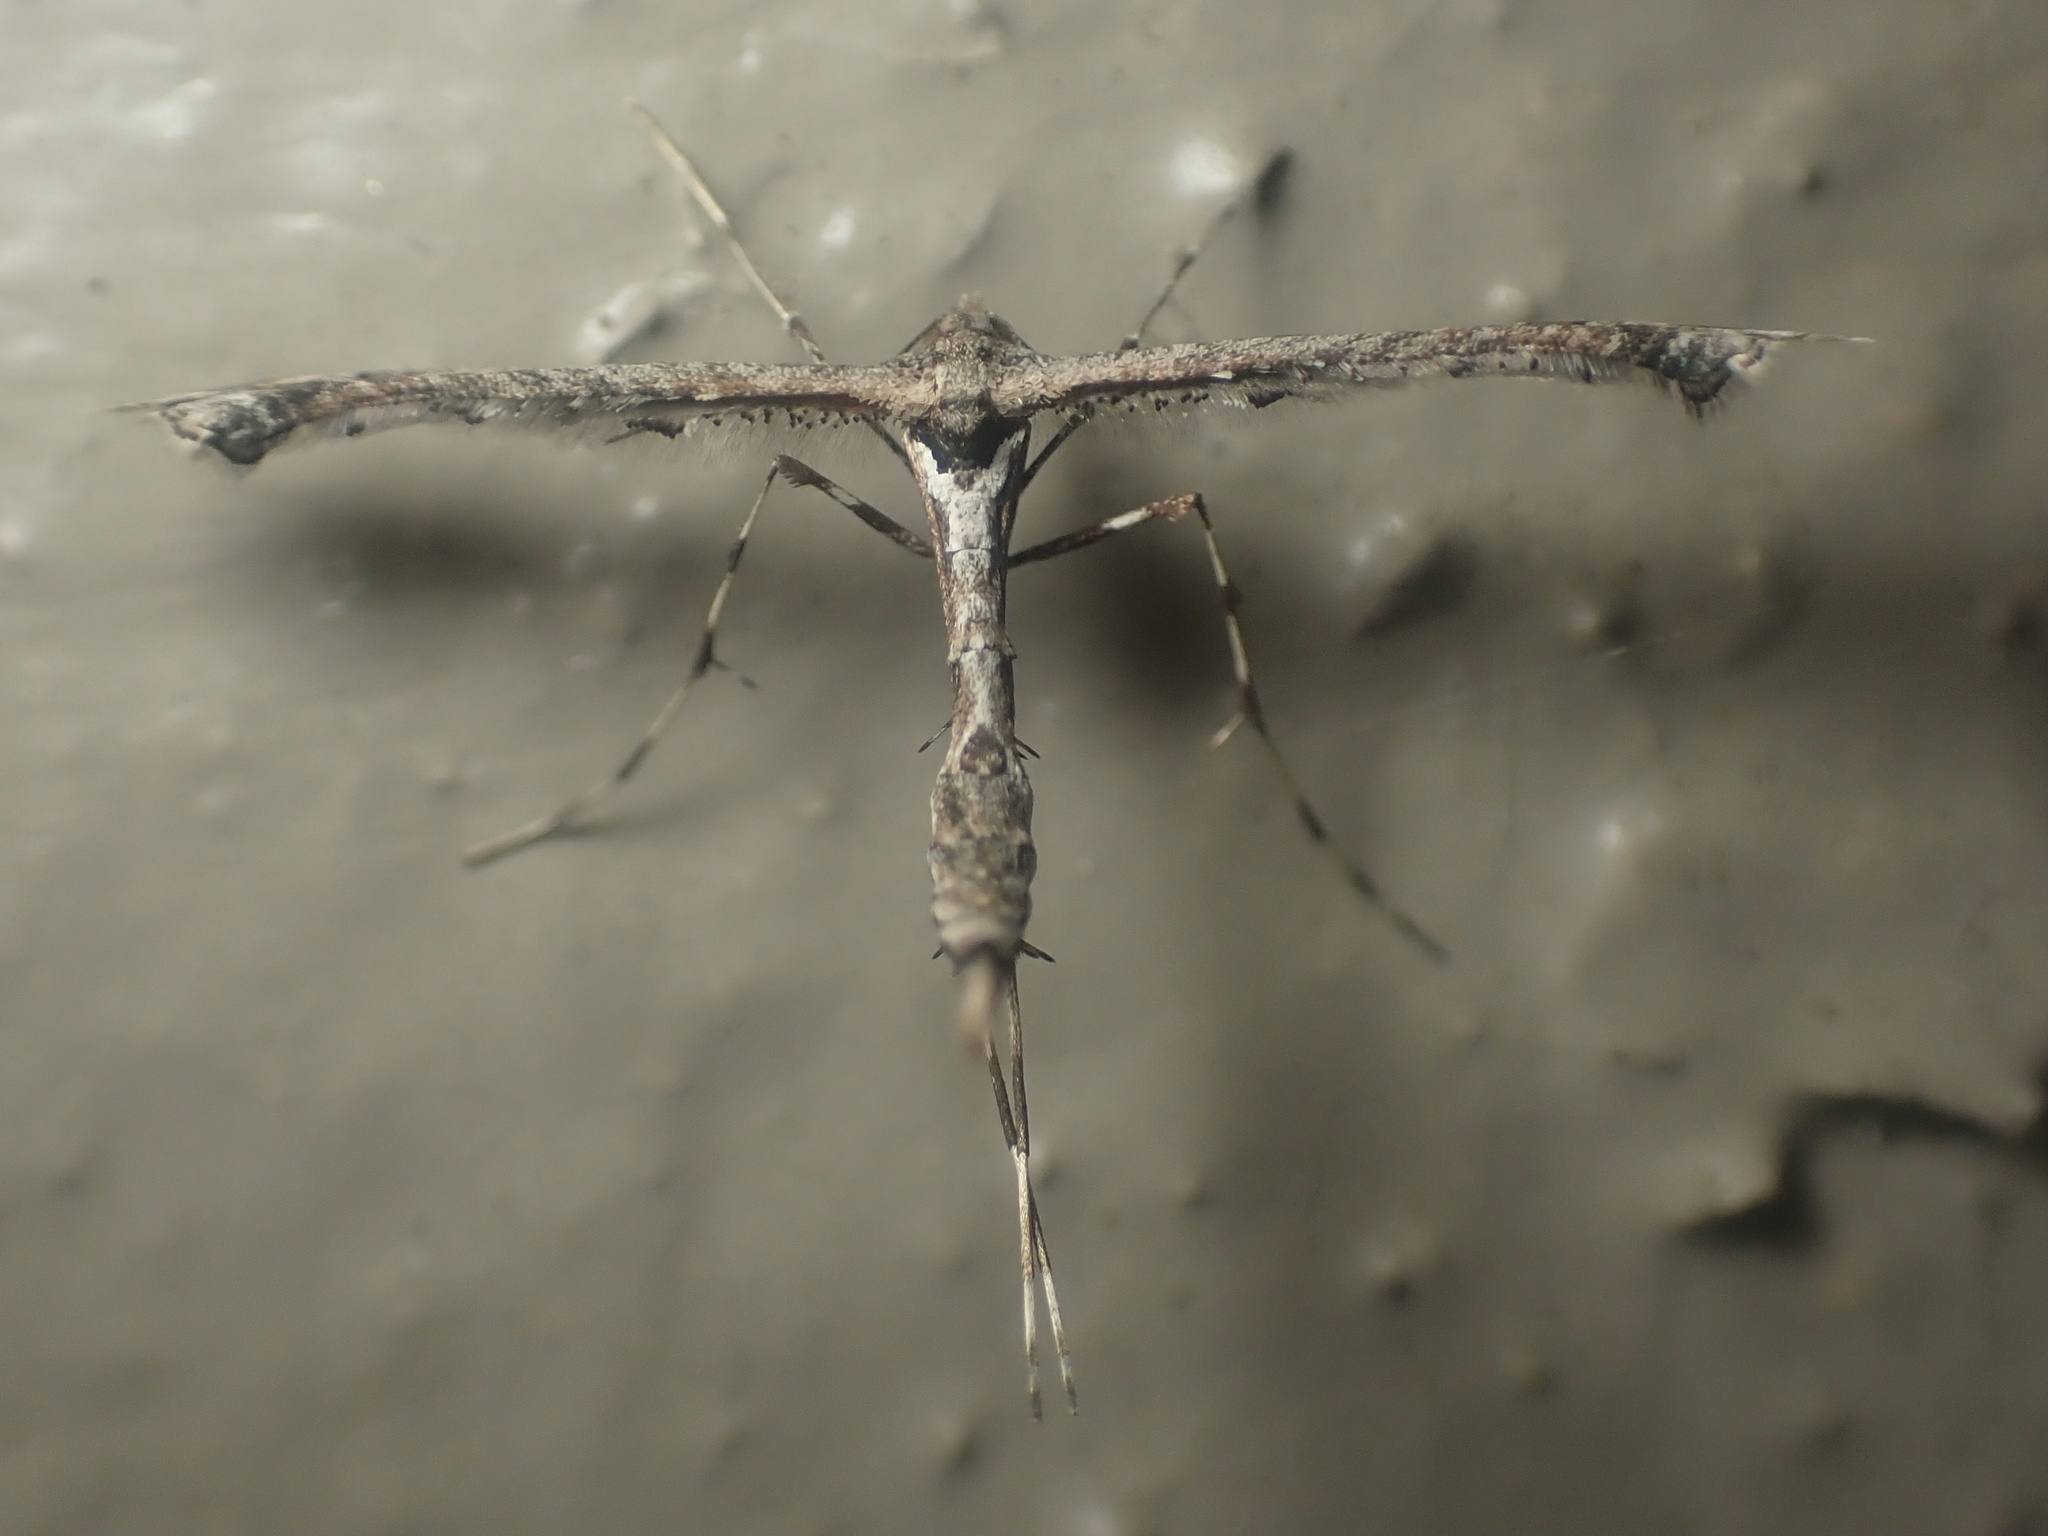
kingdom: Animalia
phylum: Arthropoda
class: Insecta
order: Lepidoptera
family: Pterophoridae
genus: Anstenoptilia
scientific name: Anstenoptilia marmarodactyla
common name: Moth
